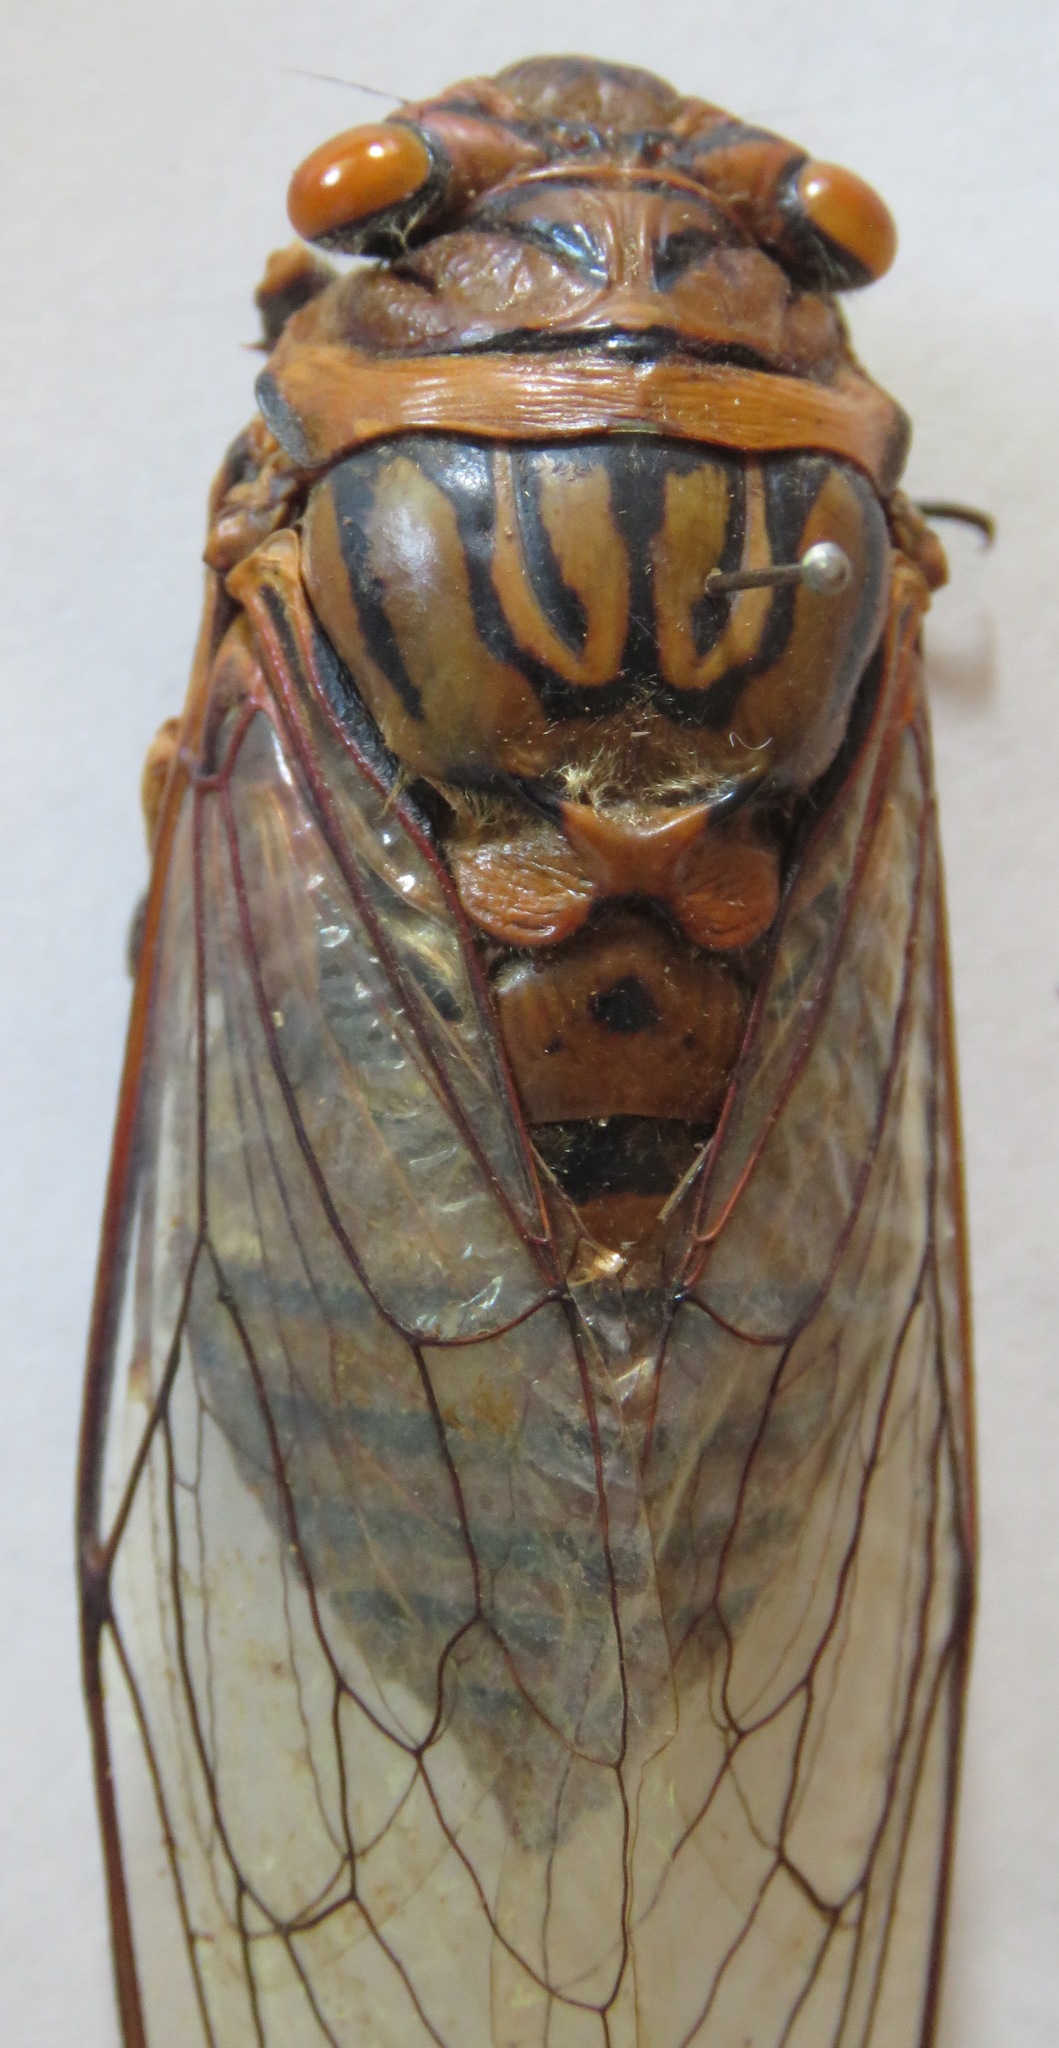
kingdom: Animalia
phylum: Arthropoda
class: Insecta
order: Hemiptera
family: Cicadidae
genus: Quesada
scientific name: Quesada gigas
